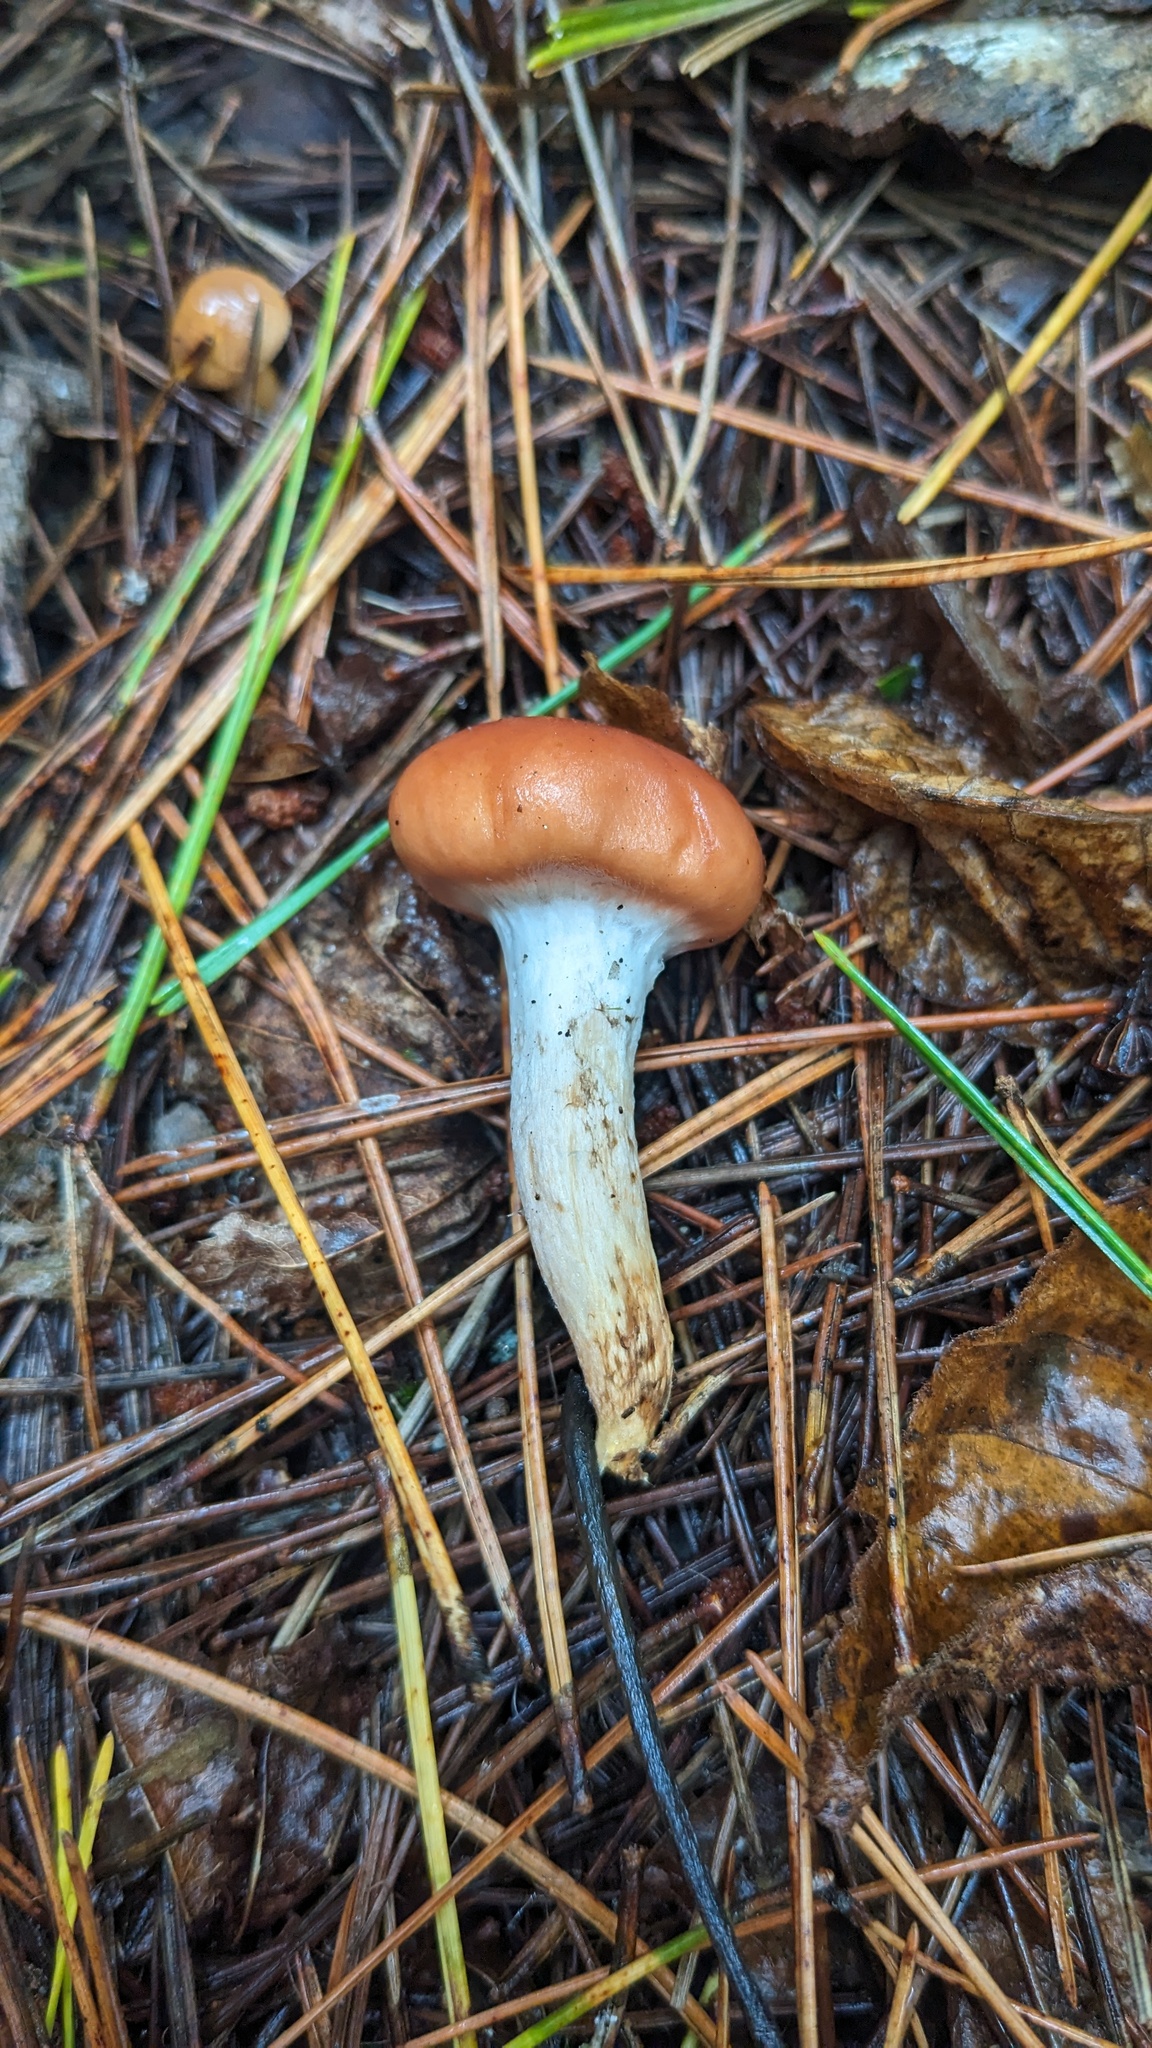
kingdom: Fungi
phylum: Basidiomycota
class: Agaricomycetes
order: Boletales
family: Gomphidiaceae
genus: Gomphidius
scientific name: Gomphidius roseus
